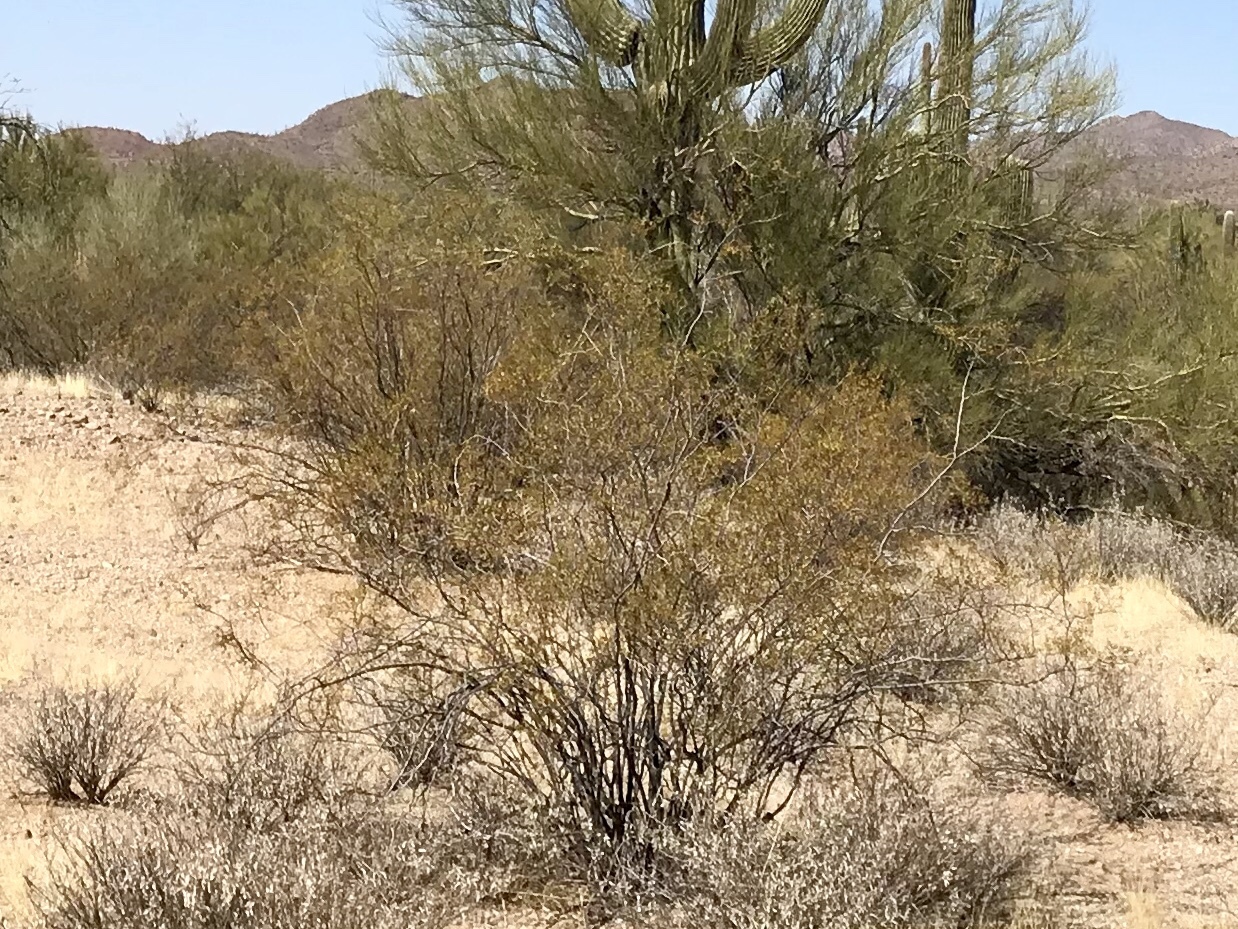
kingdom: Plantae
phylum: Tracheophyta
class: Magnoliopsida
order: Zygophyllales
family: Zygophyllaceae
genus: Larrea
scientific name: Larrea tridentata
